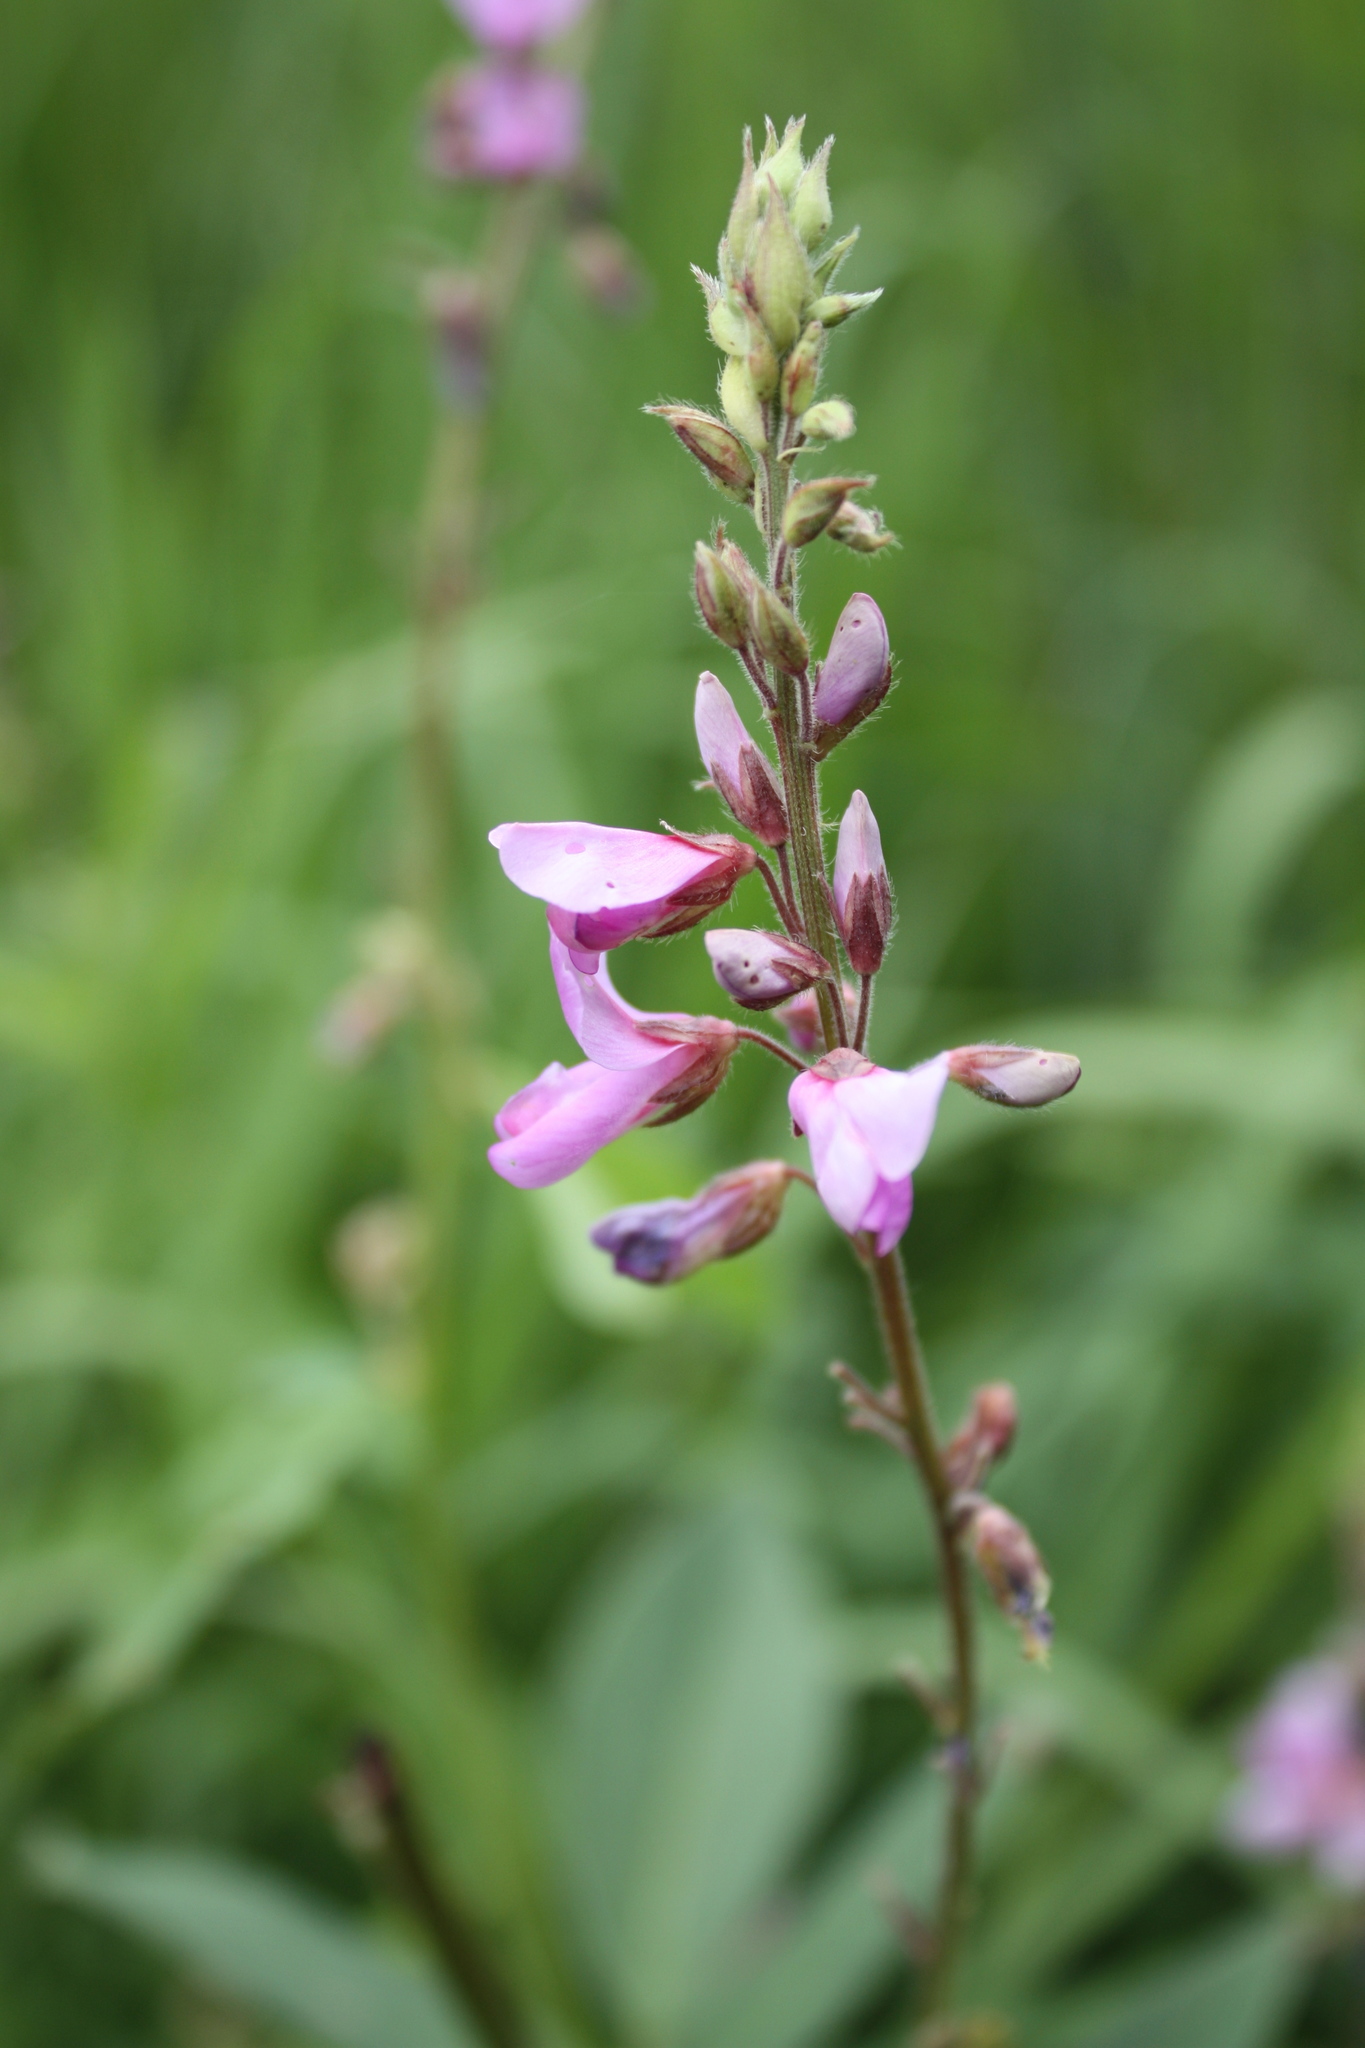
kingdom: Plantae
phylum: Tracheophyta
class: Magnoliopsida
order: Fabales
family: Fabaceae
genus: Desmodium
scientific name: Desmodium canadense
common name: Canada tick-trefoil
